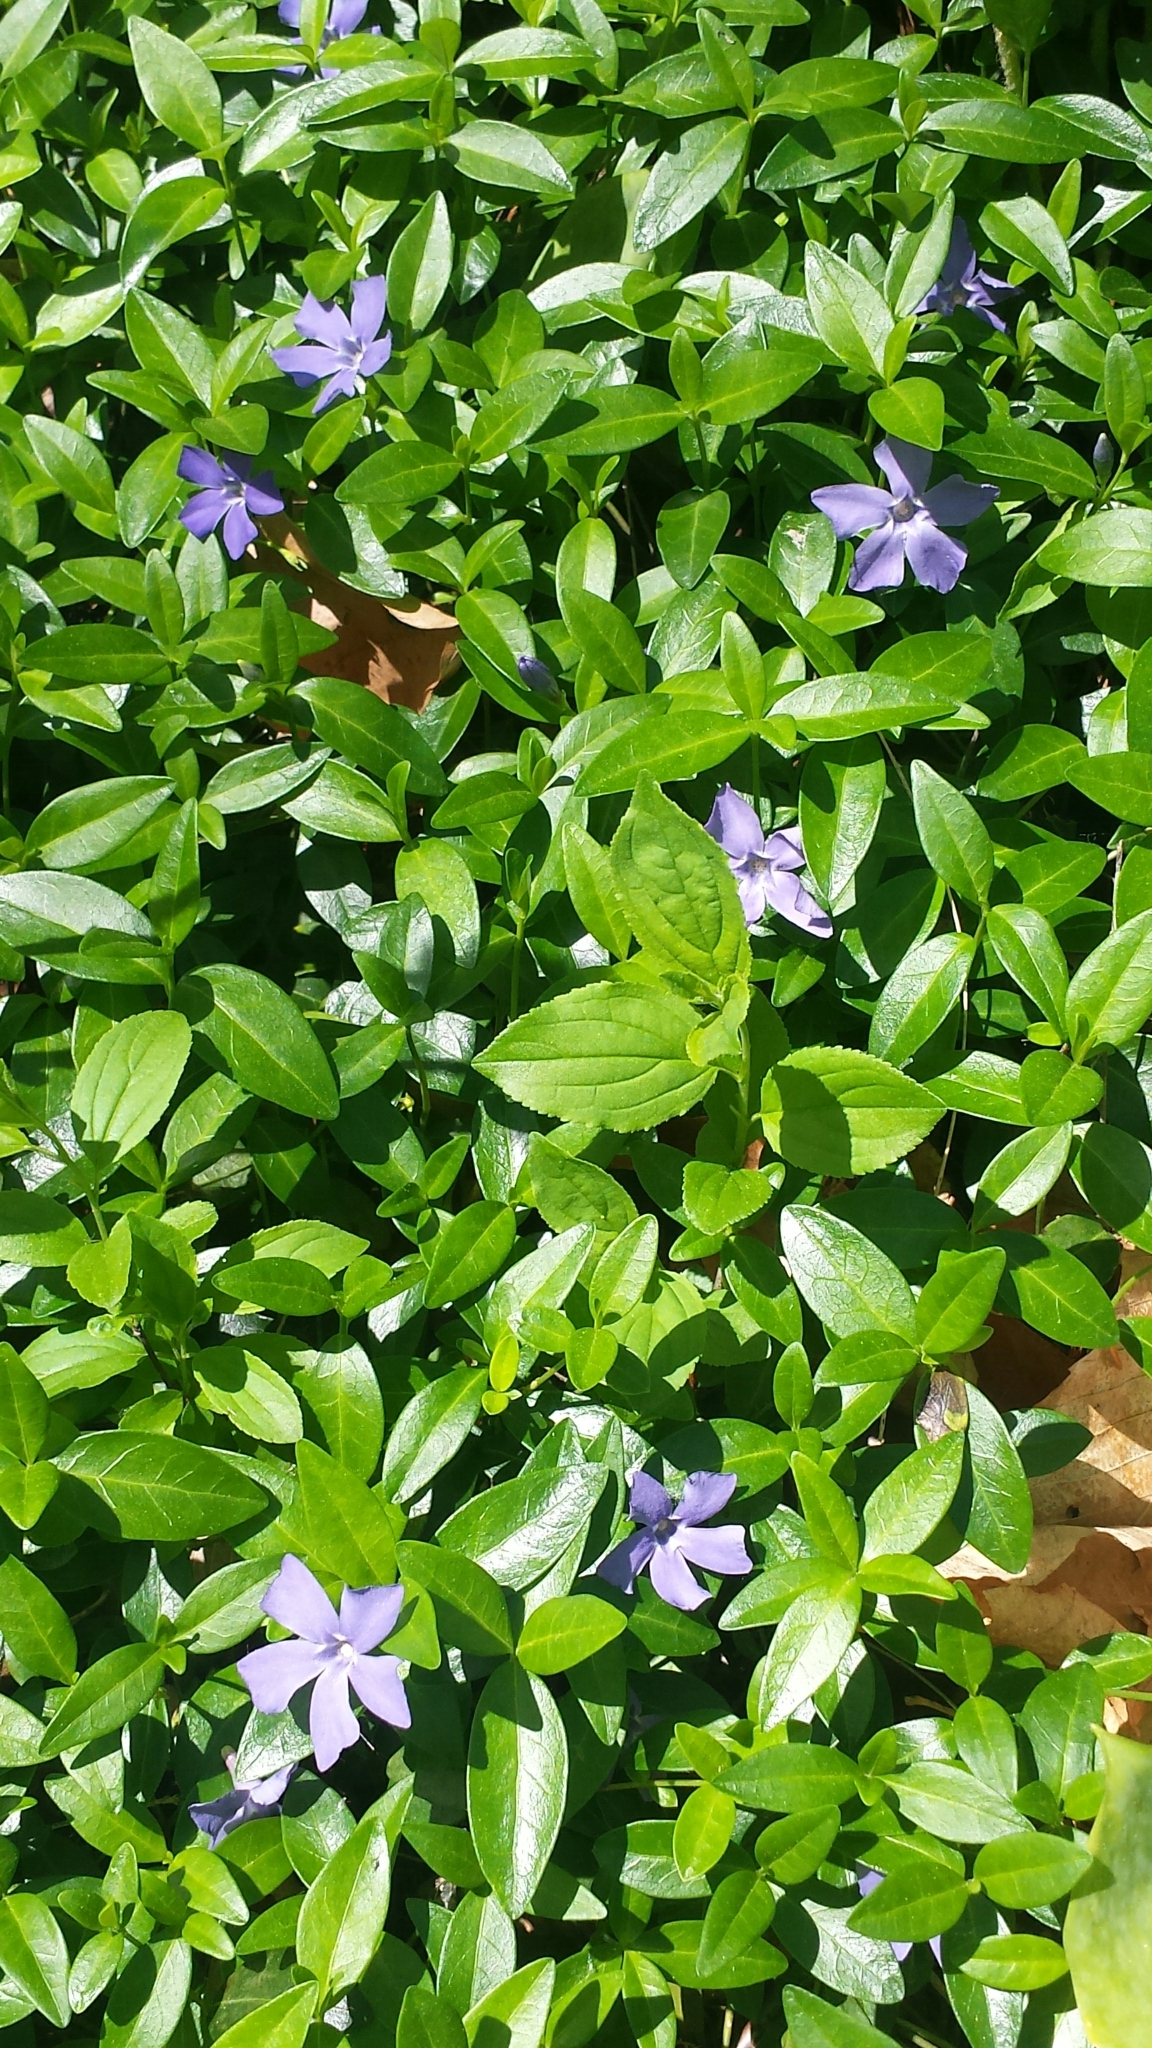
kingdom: Plantae
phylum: Tracheophyta
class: Magnoliopsida
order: Gentianales
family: Apocynaceae
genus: Vinca
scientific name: Vinca minor
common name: Lesser periwinkle
